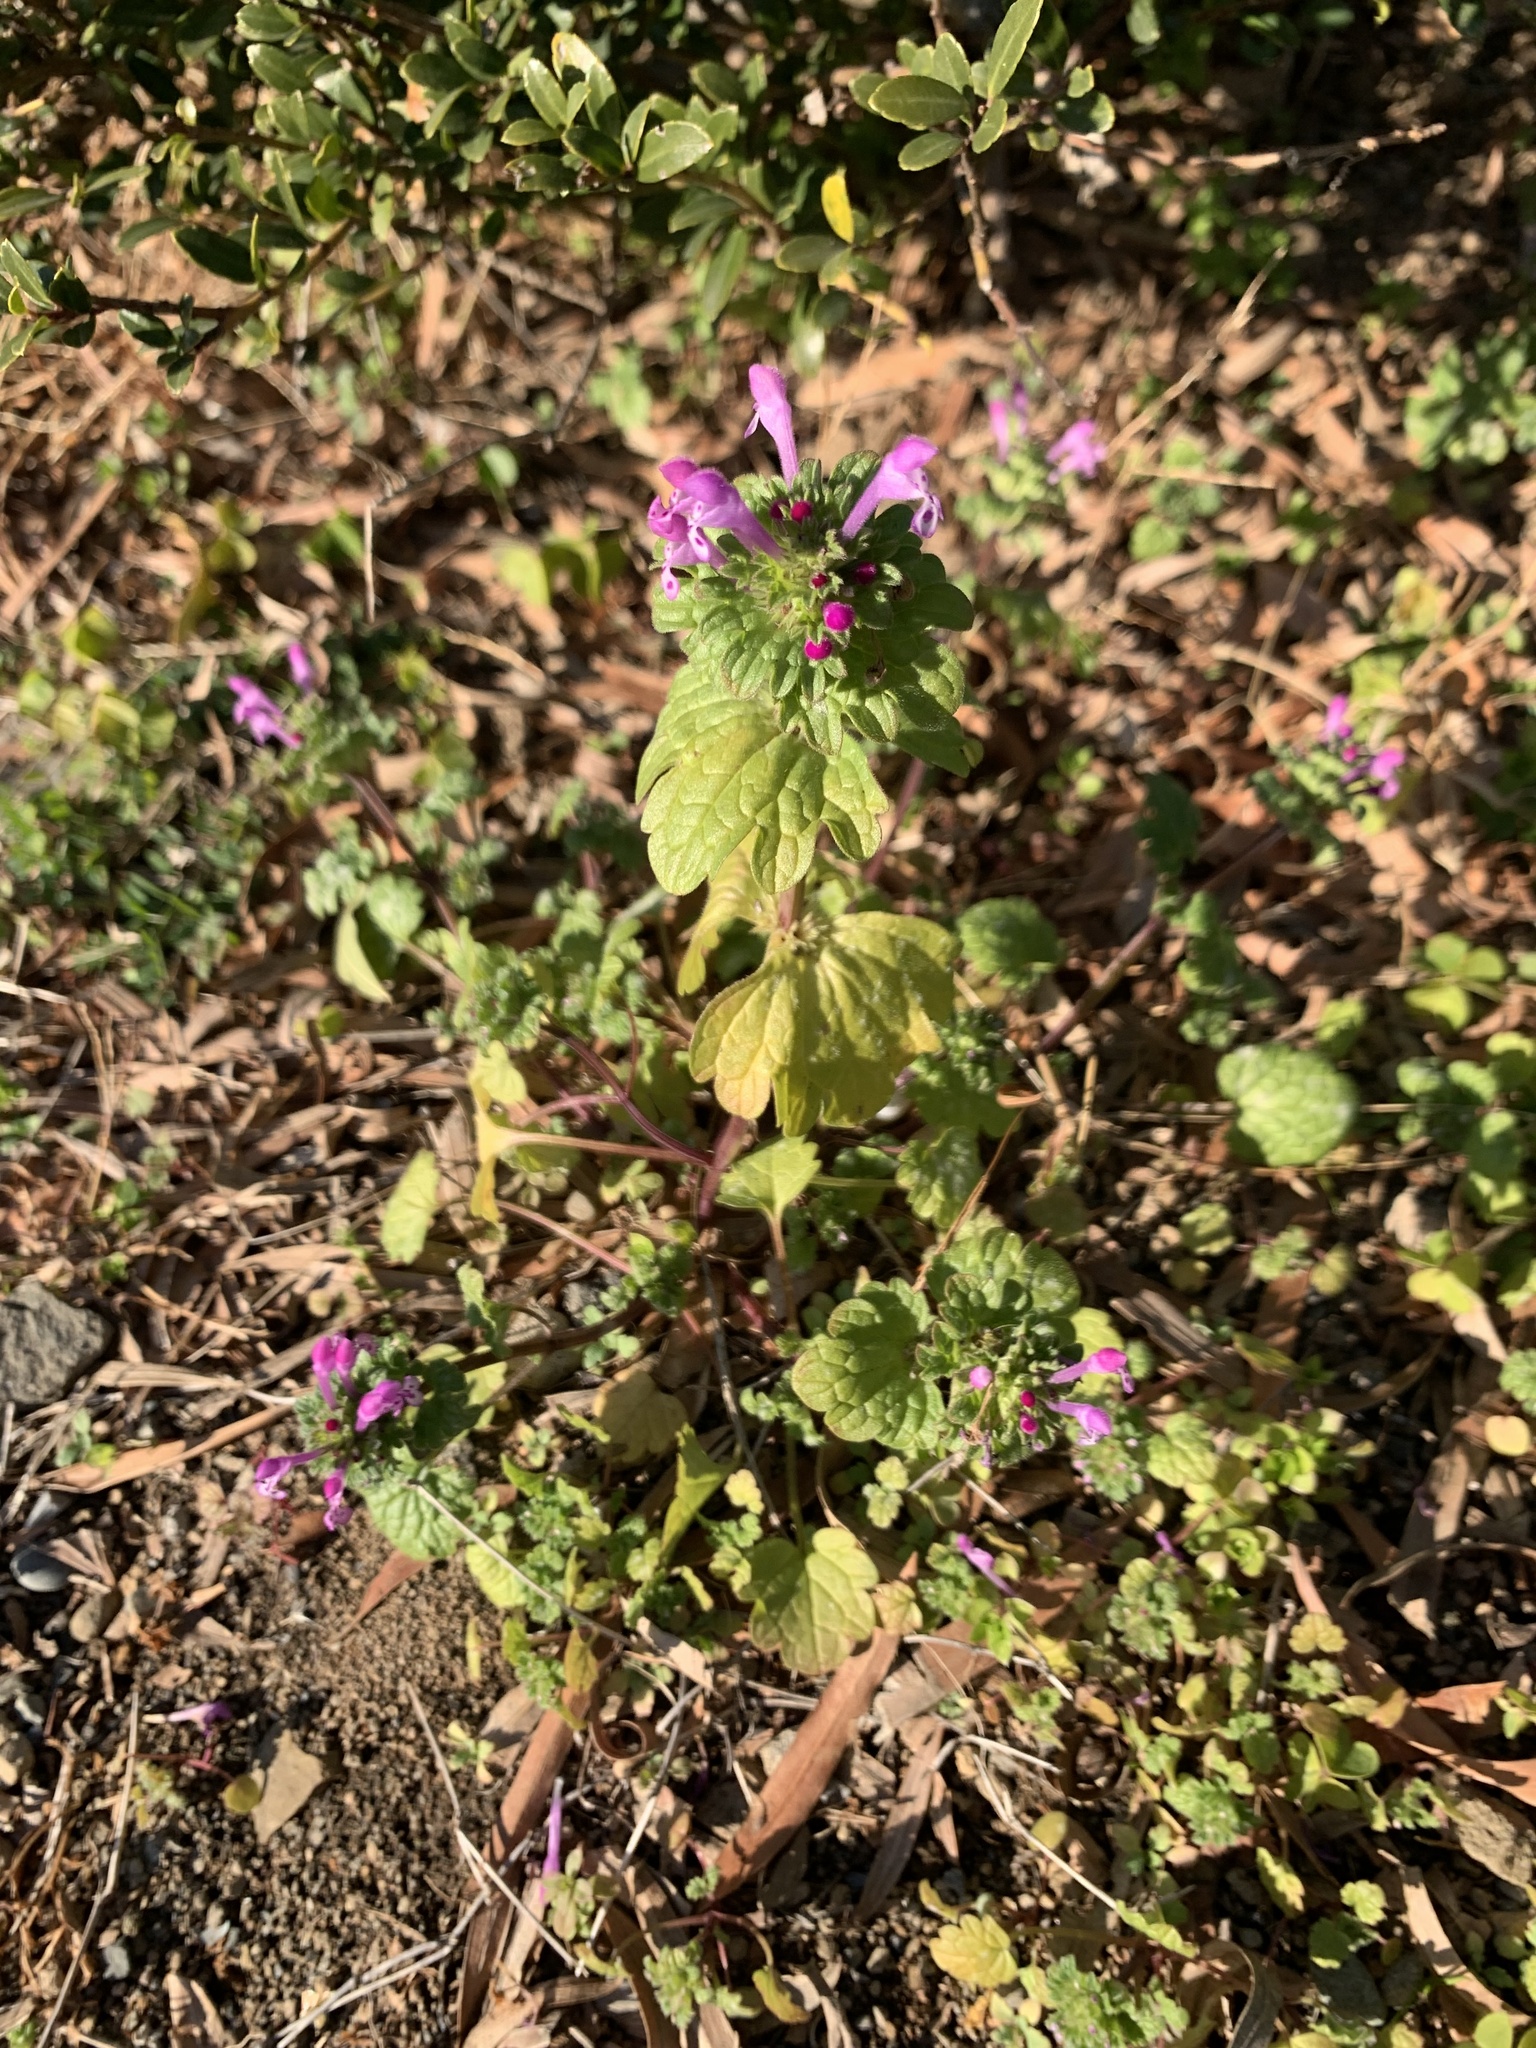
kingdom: Plantae
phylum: Tracheophyta
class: Magnoliopsida
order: Lamiales
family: Lamiaceae
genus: Lamium
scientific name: Lamium amplexicaule
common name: Henbit dead-nettle
